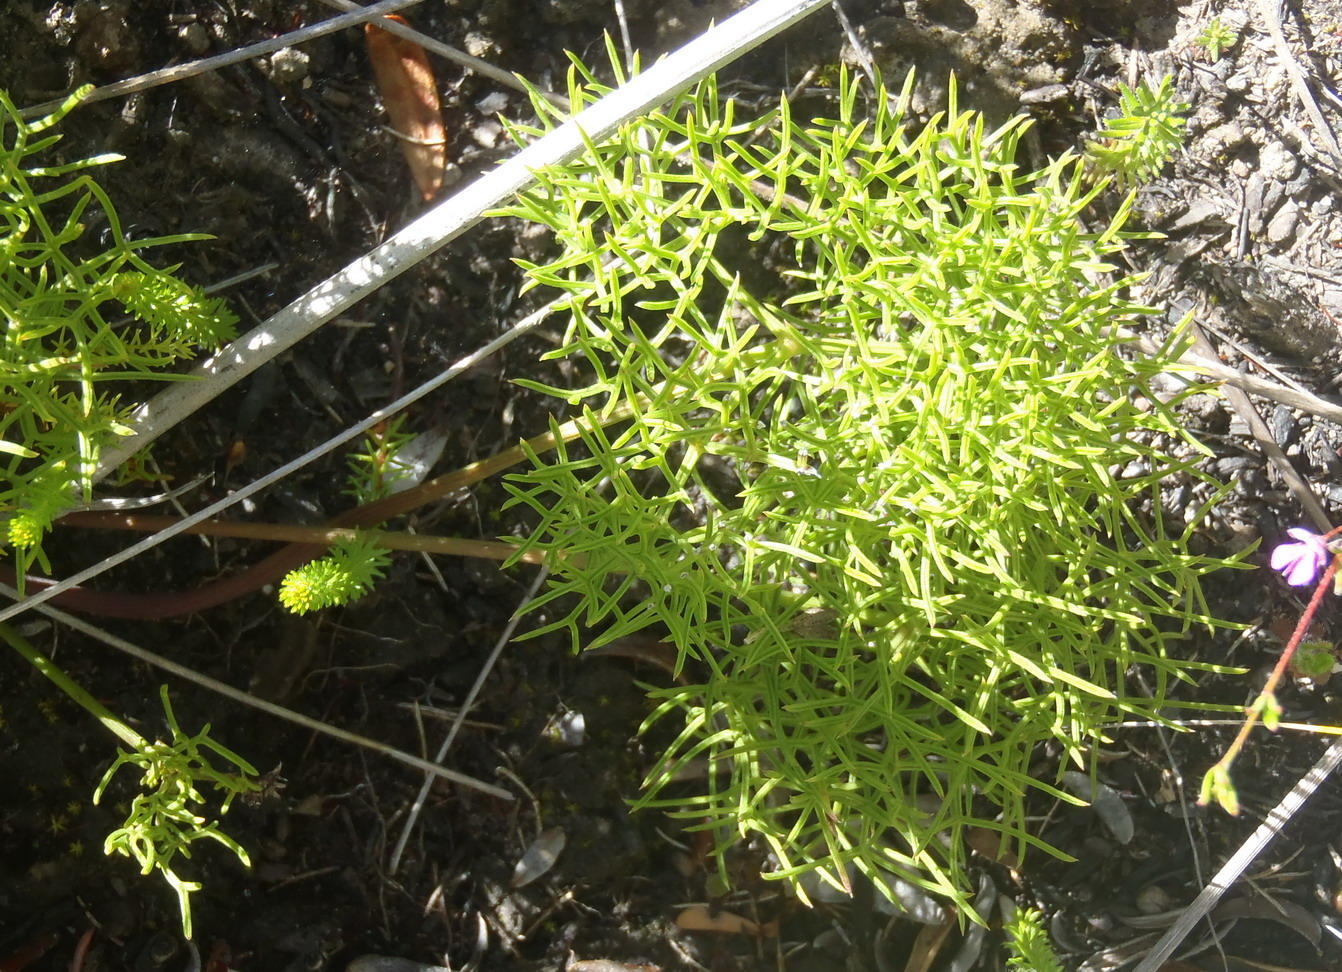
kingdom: Plantae
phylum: Tracheophyta
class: Magnoliopsida
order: Apiales
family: Apiaceae
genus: Nanobubon
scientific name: Nanobubon capillaceum
